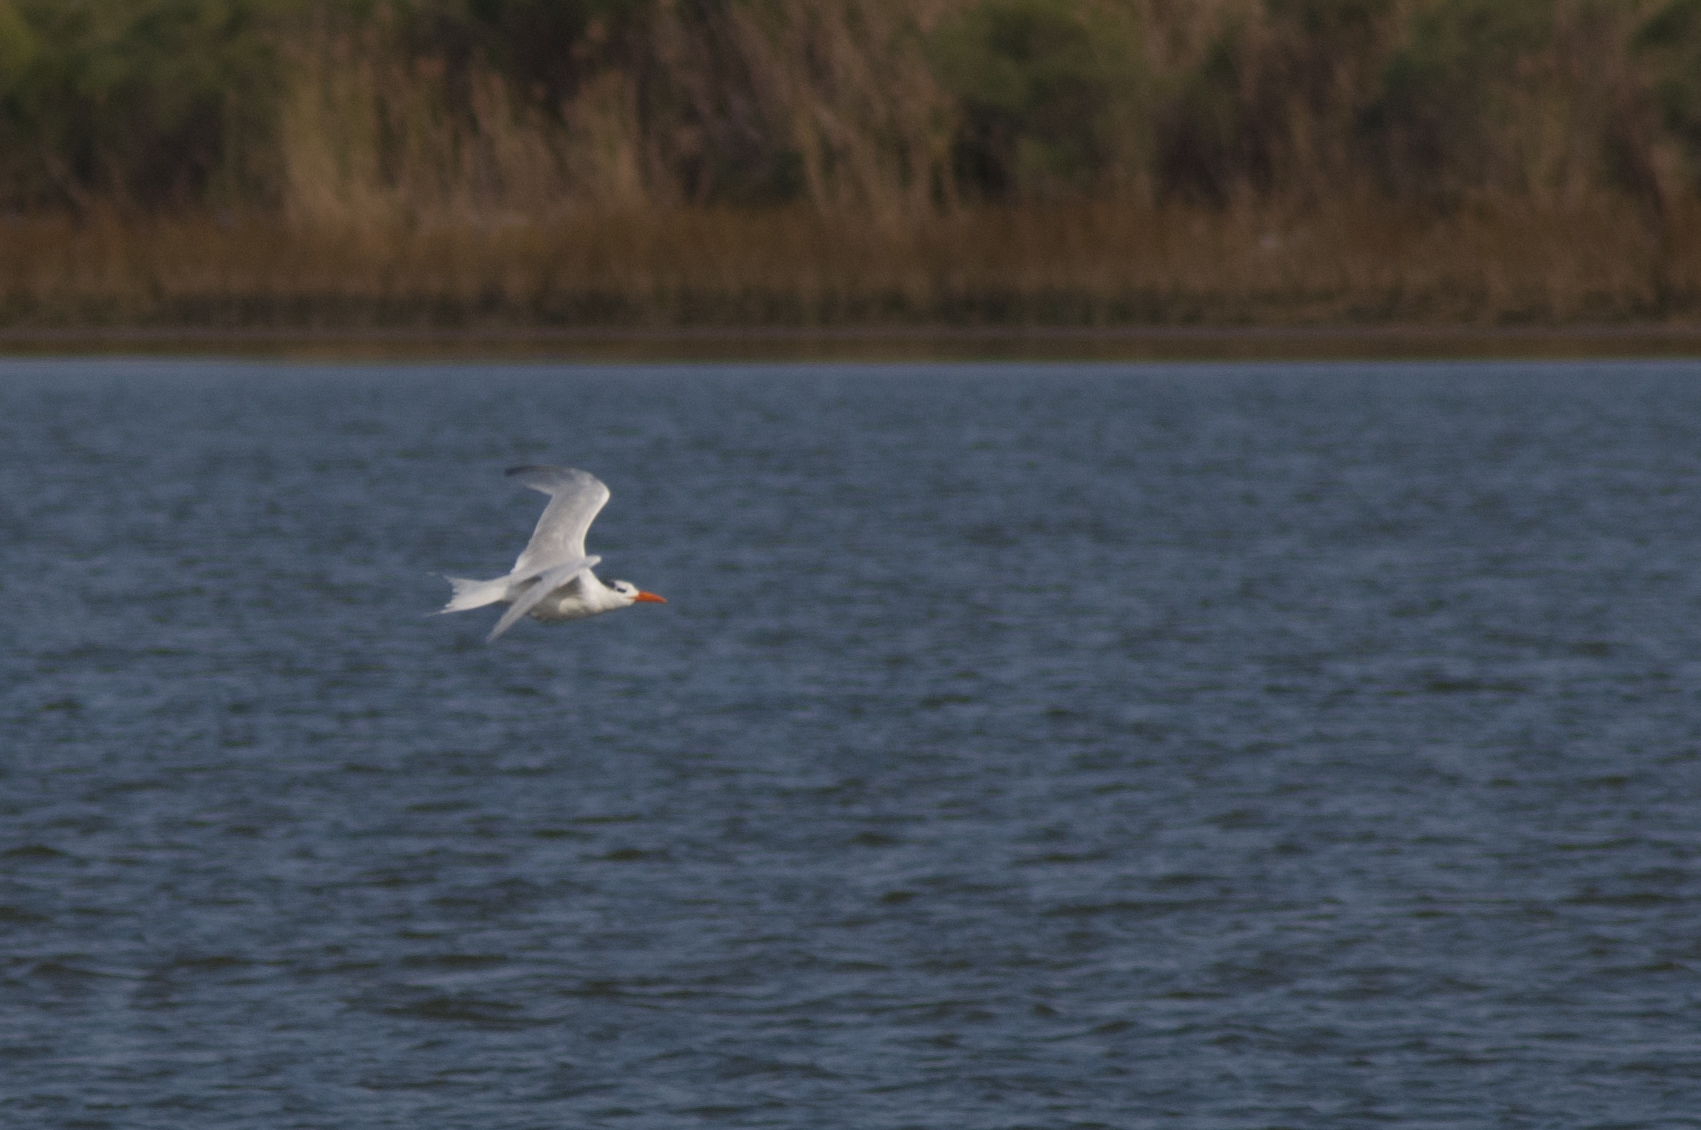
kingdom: Animalia
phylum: Chordata
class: Aves
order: Charadriiformes
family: Laridae
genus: Hydroprogne
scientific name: Hydroprogne caspia
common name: Caspian tern
